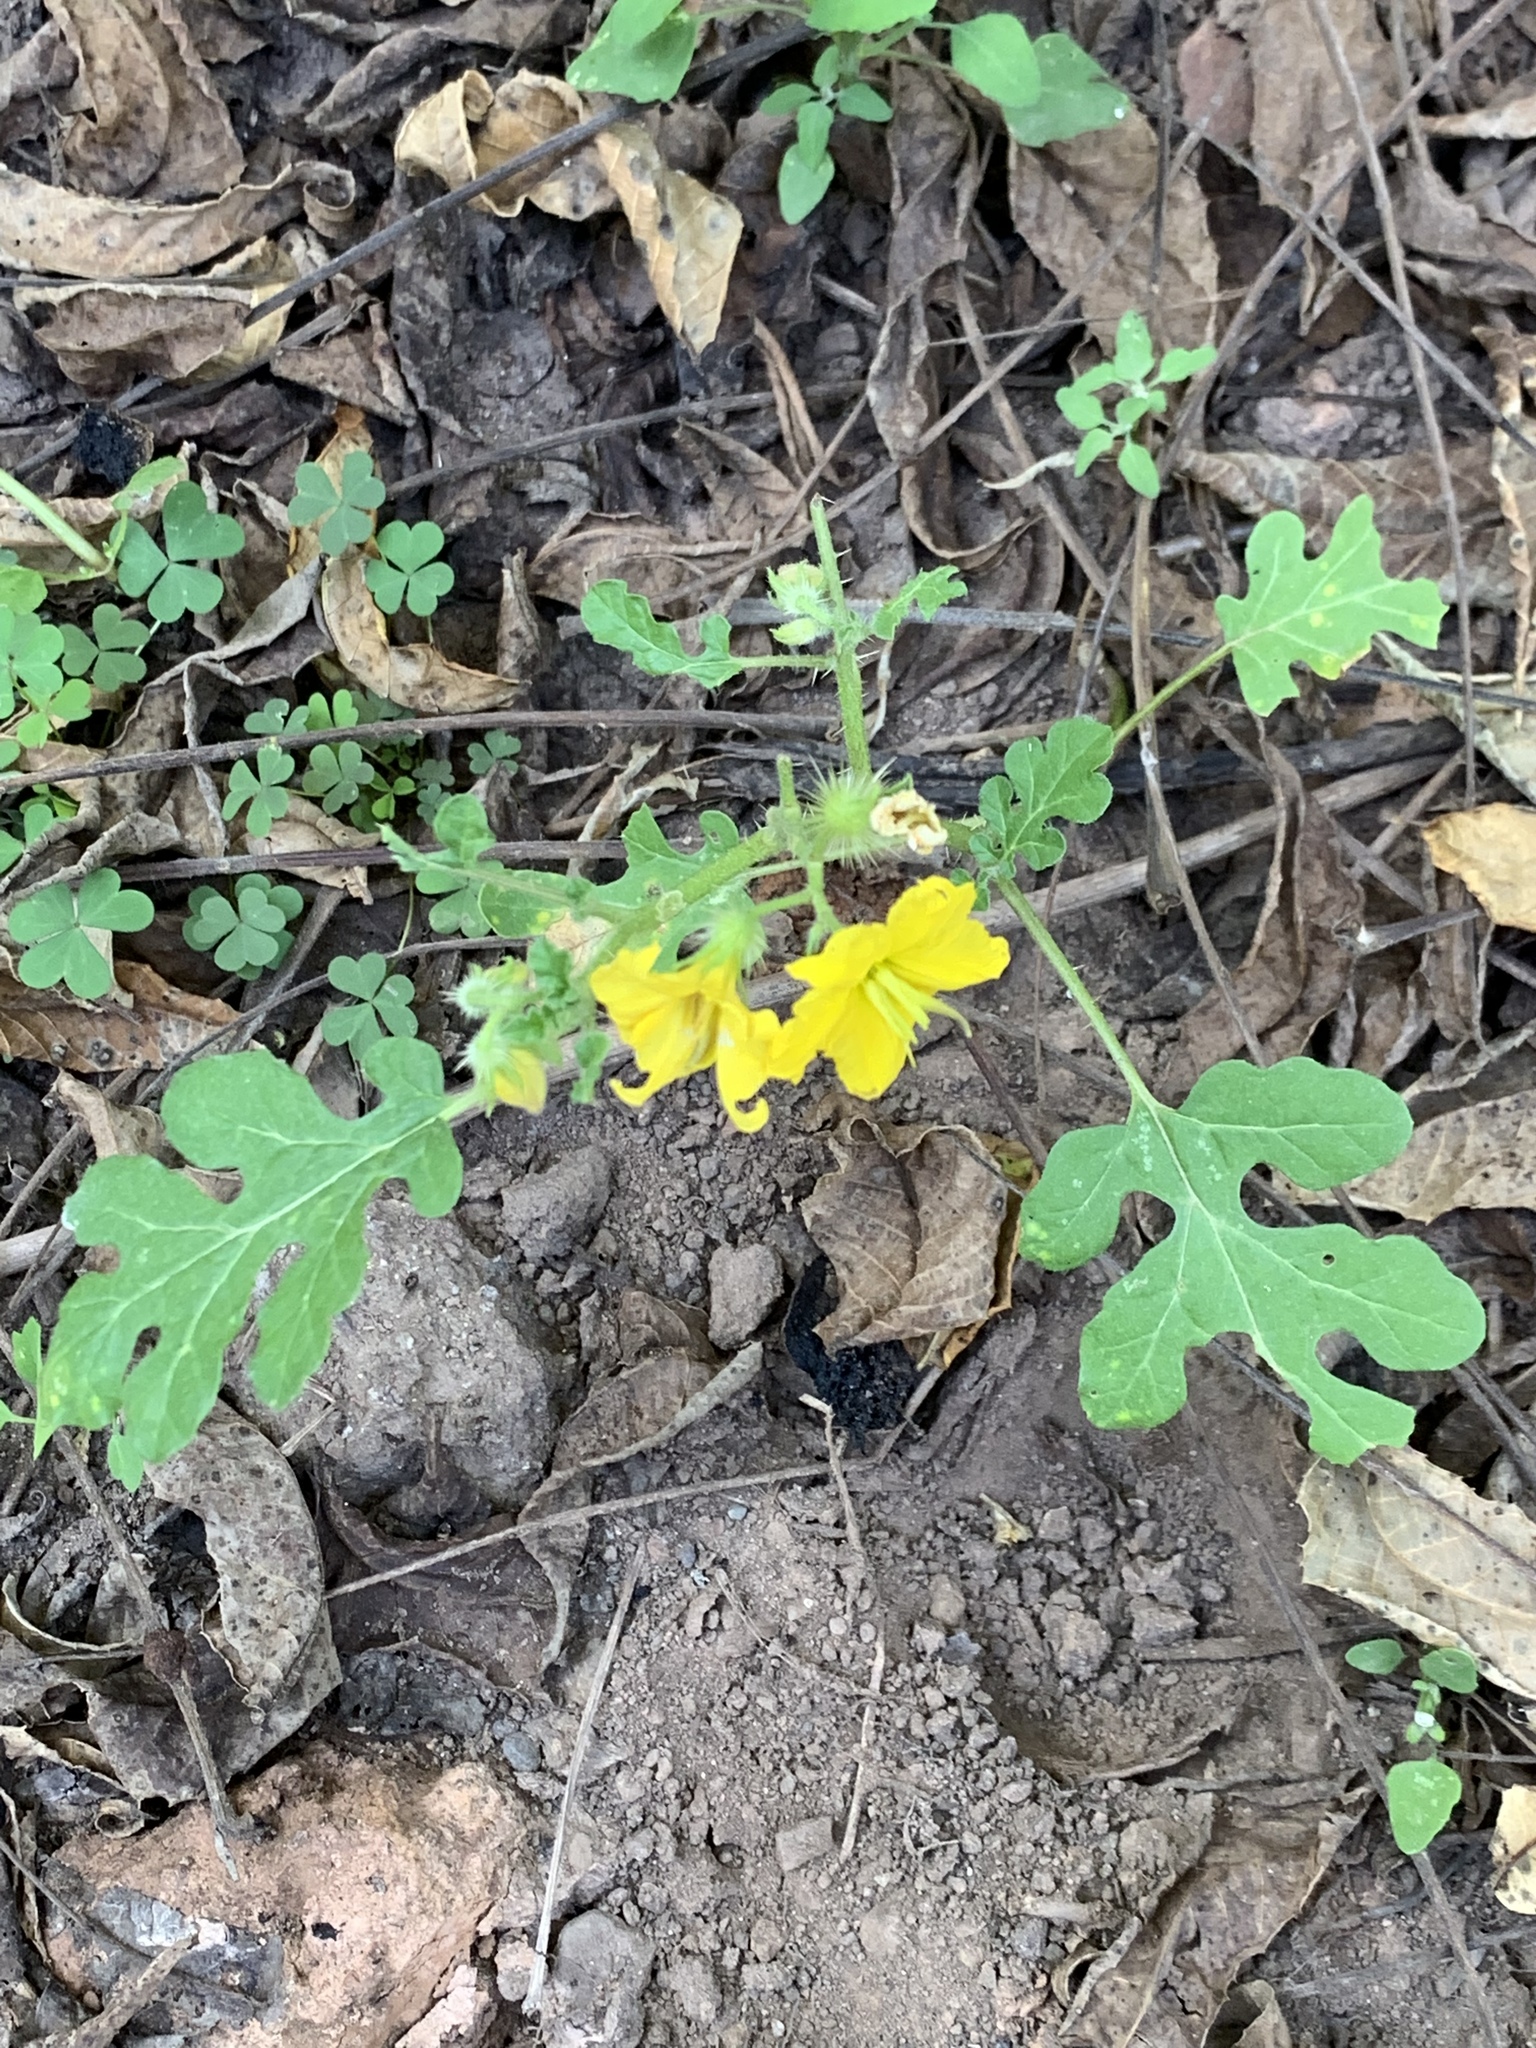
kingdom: Plantae
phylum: Tracheophyta
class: Magnoliopsida
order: Solanales
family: Solanaceae
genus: Solanum
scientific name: Solanum angustifolium
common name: Buffalobur nightshade
